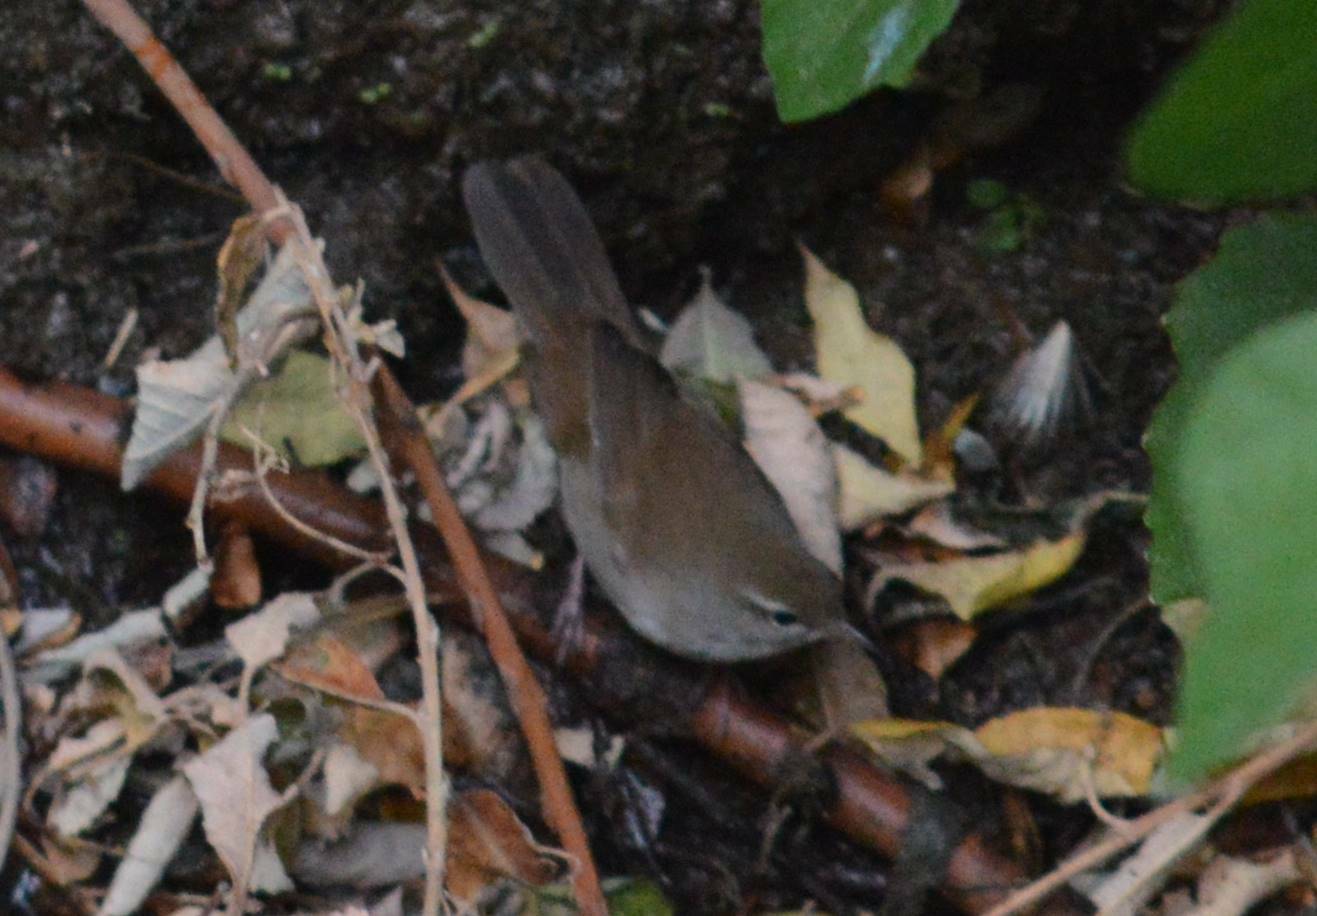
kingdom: Animalia
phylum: Chordata
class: Aves
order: Passeriformes
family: Cettiidae
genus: Cettia
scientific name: Cettia cetti
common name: Cetti's warbler
